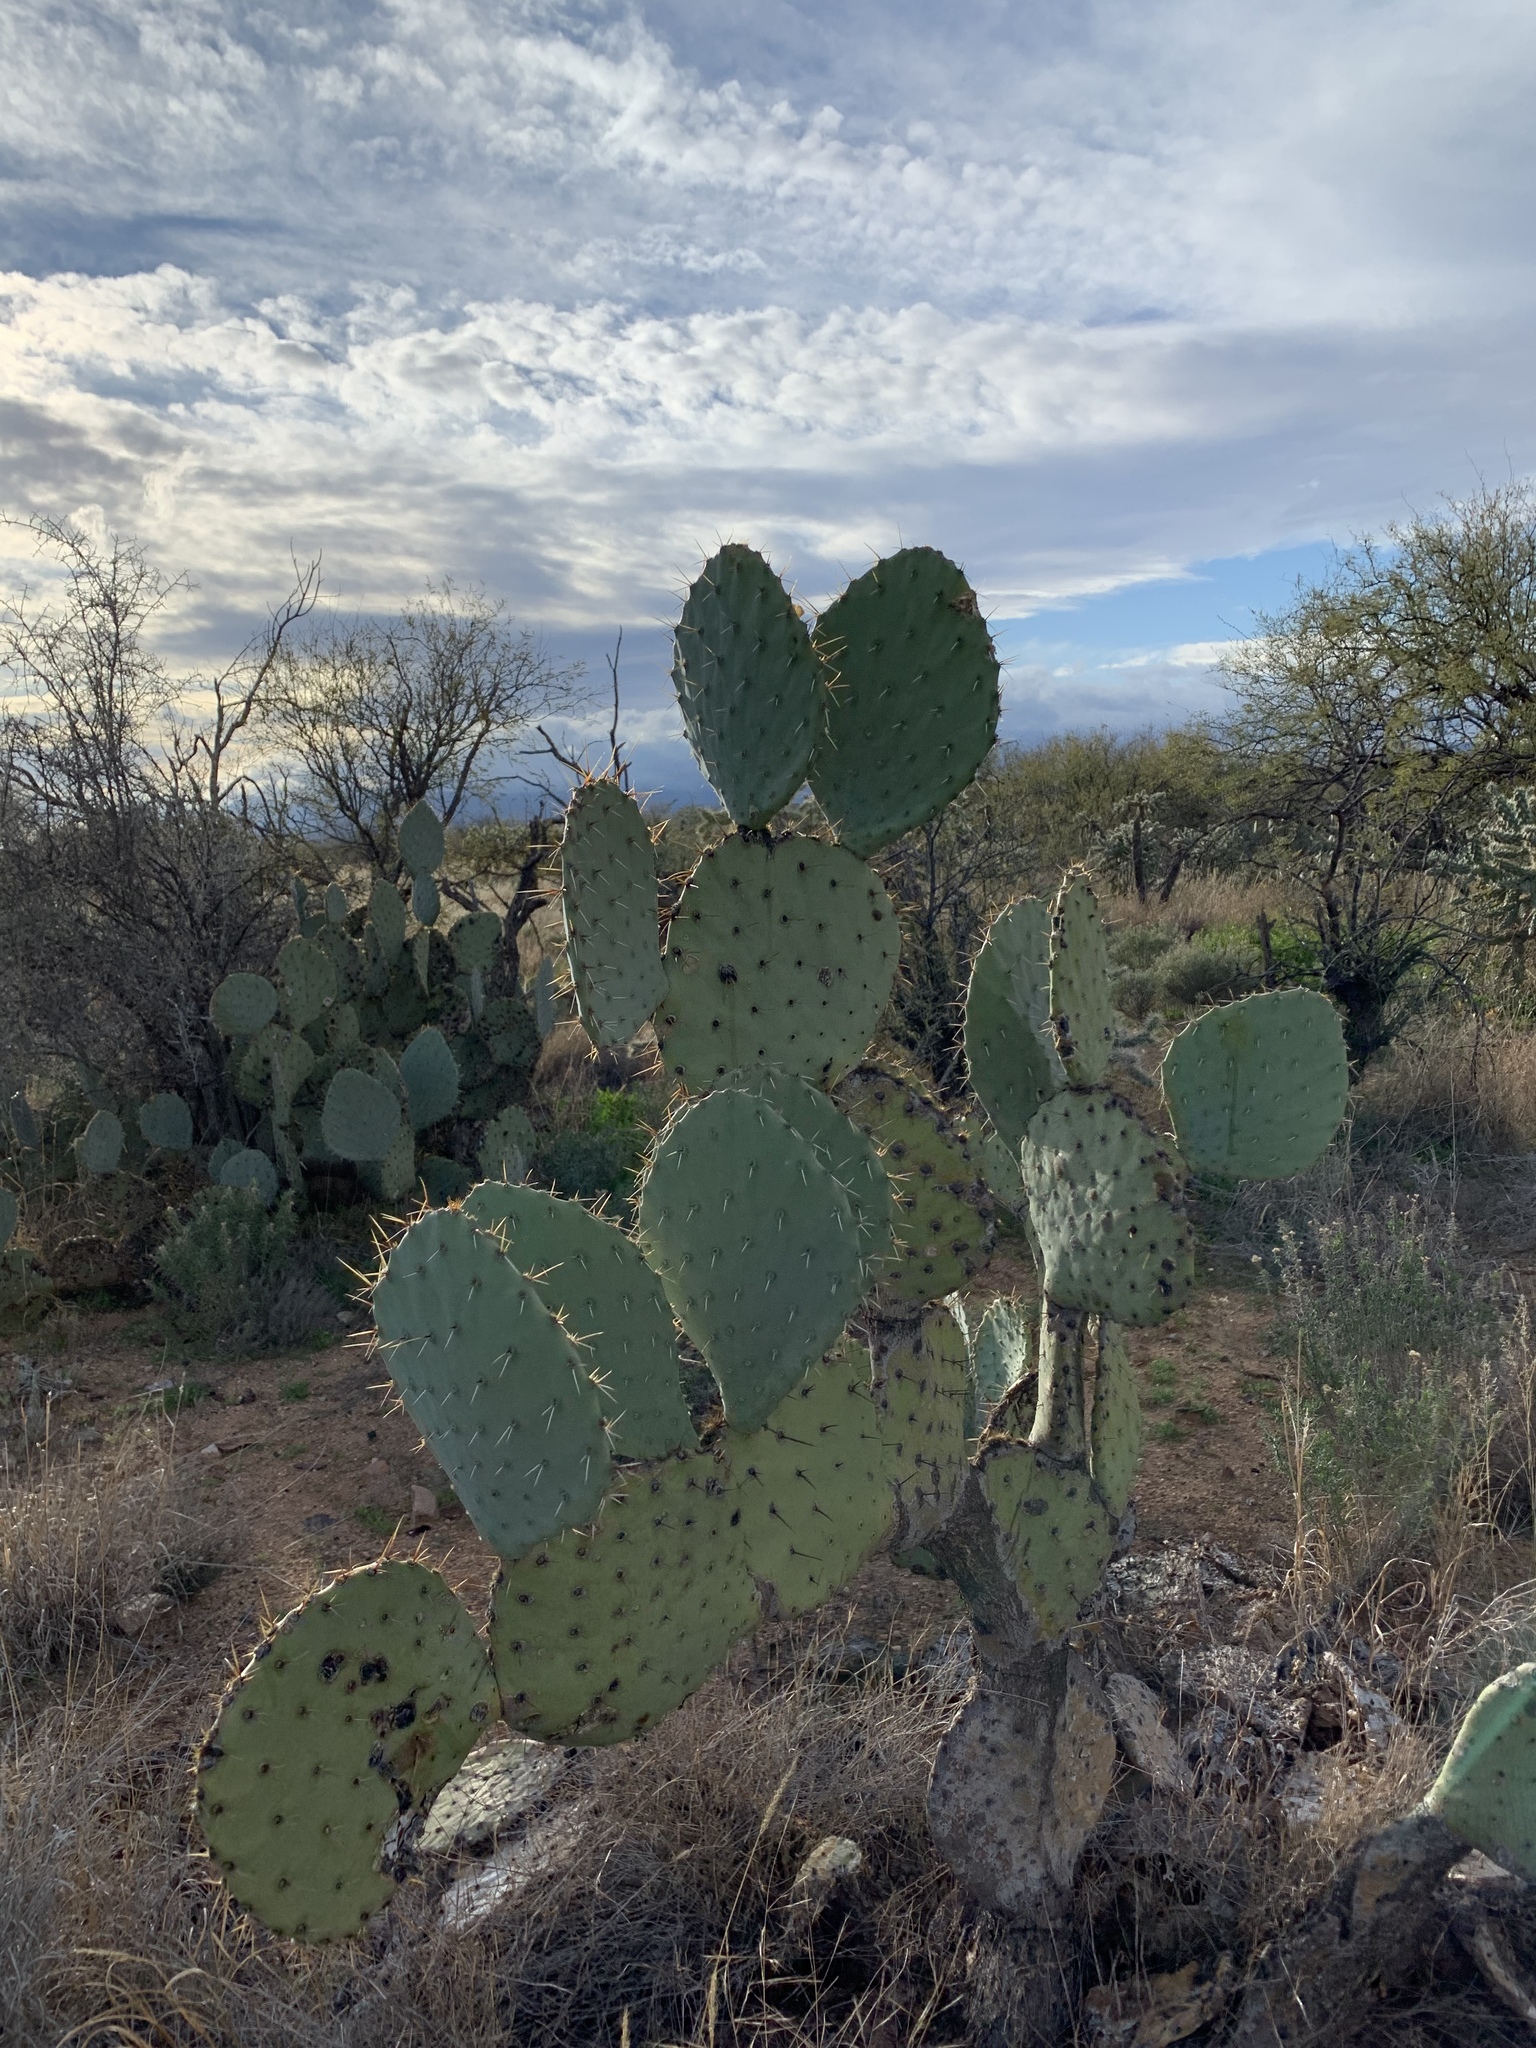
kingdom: Plantae
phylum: Tracheophyta
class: Magnoliopsida
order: Caryophyllales
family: Cactaceae
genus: Opuntia
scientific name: Opuntia engelmannii
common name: Cactus-apple
